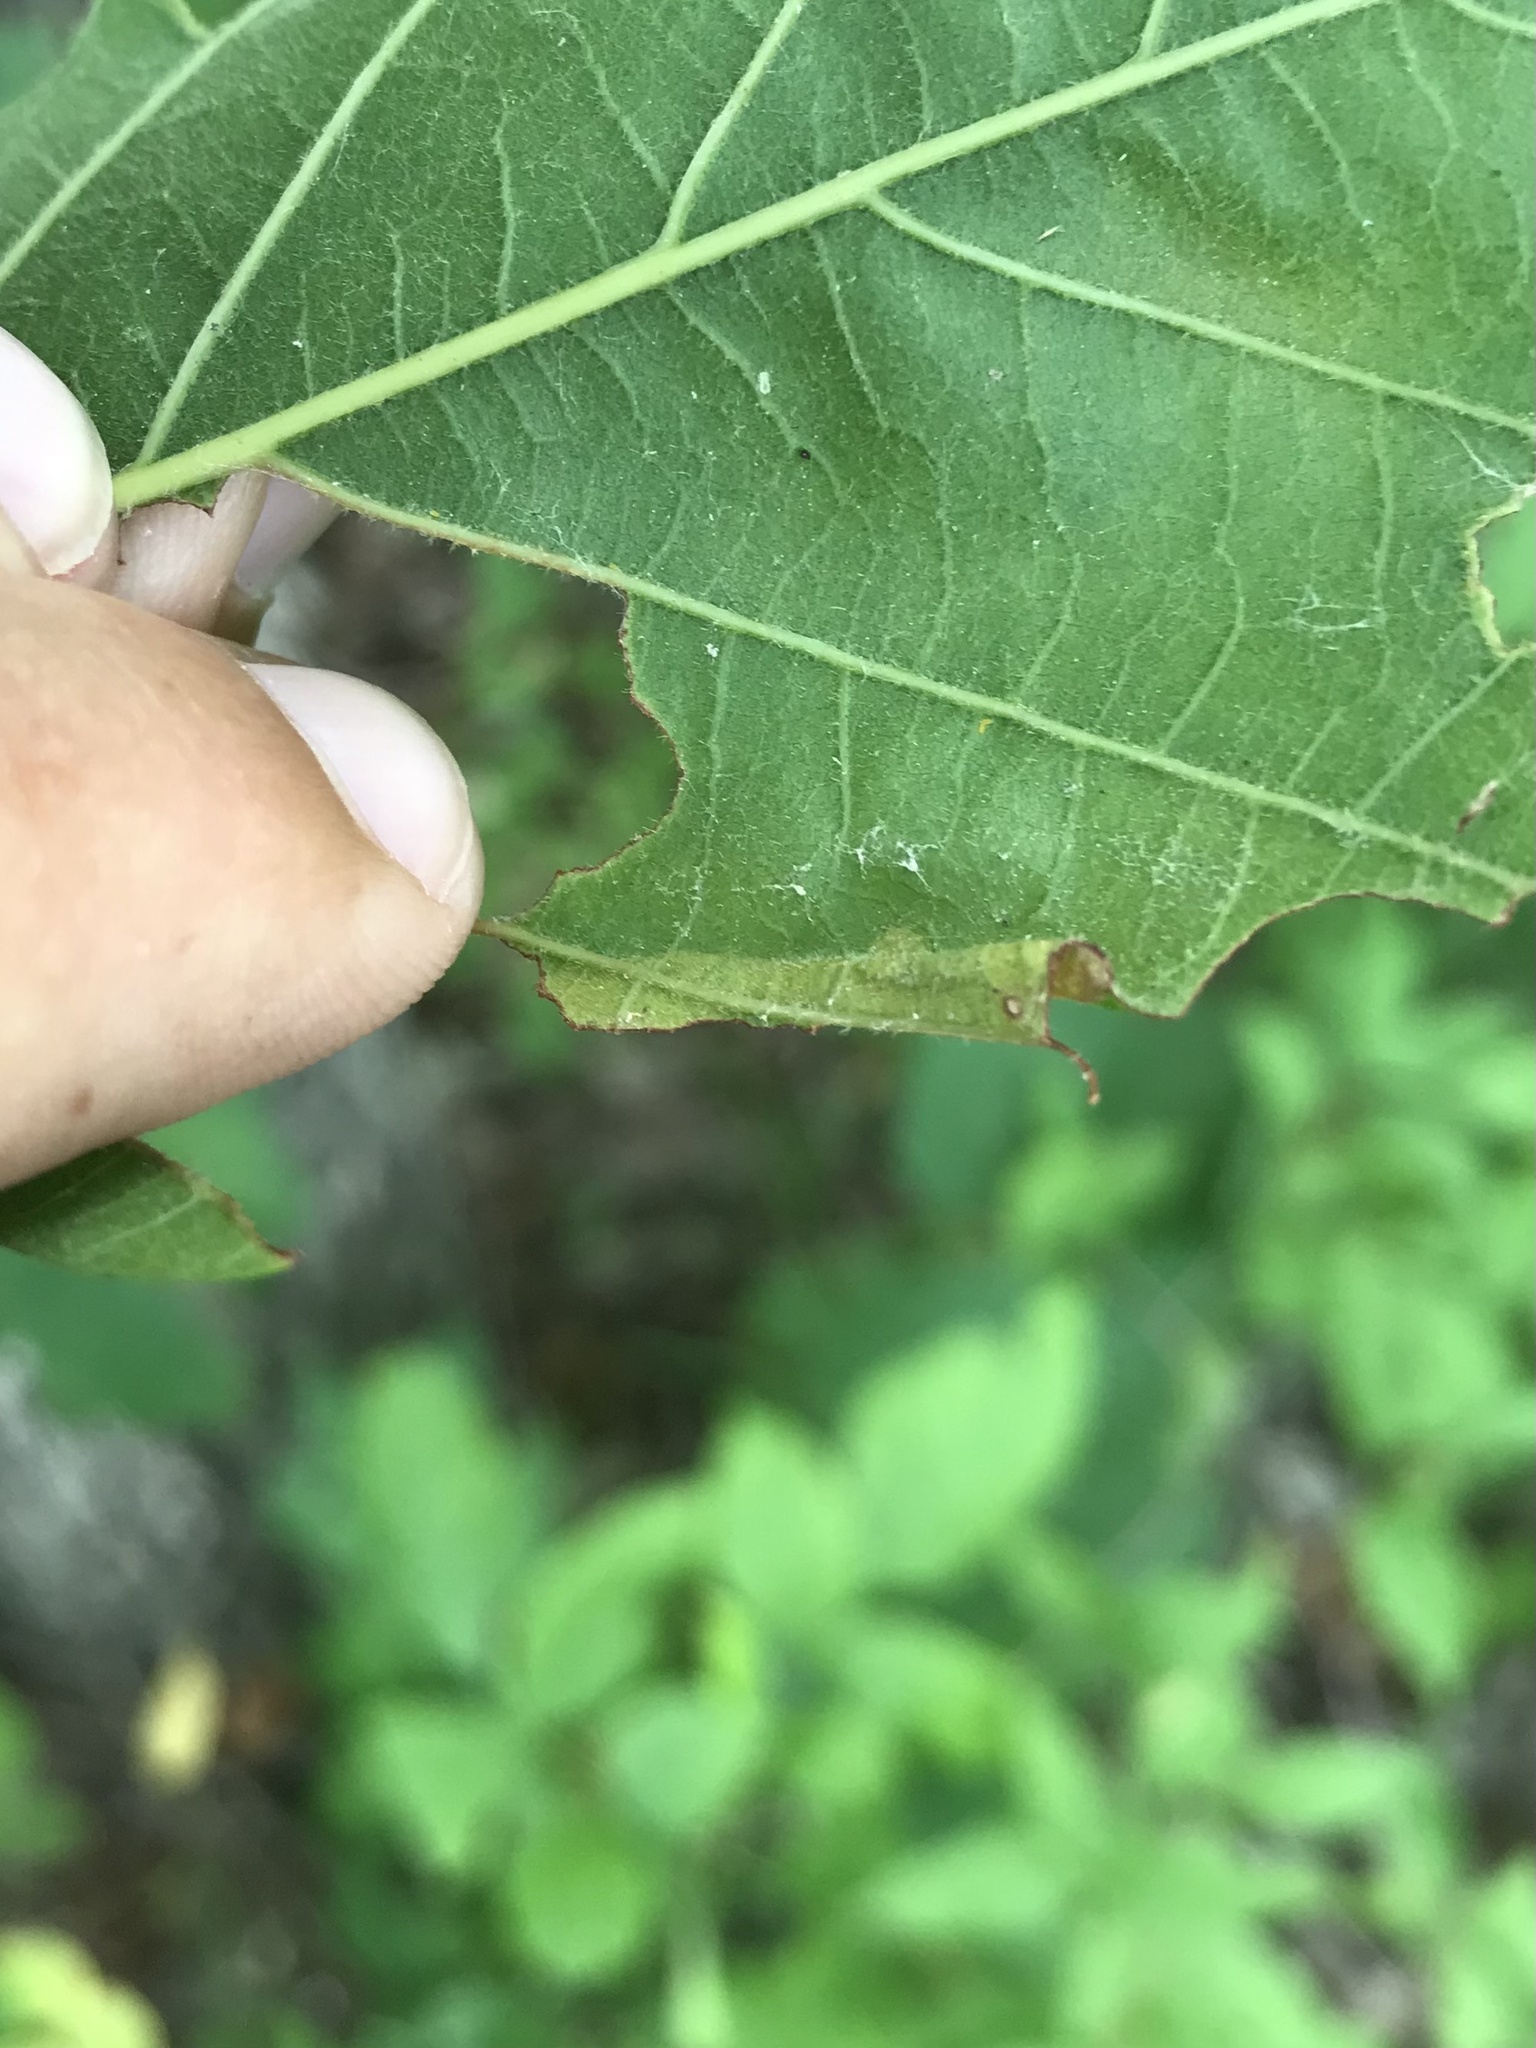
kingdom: Animalia
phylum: Arthropoda
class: Insecta
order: Lepidoptera
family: Tischeriidae
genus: Coptotriche
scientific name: Coptotriche purinosella
